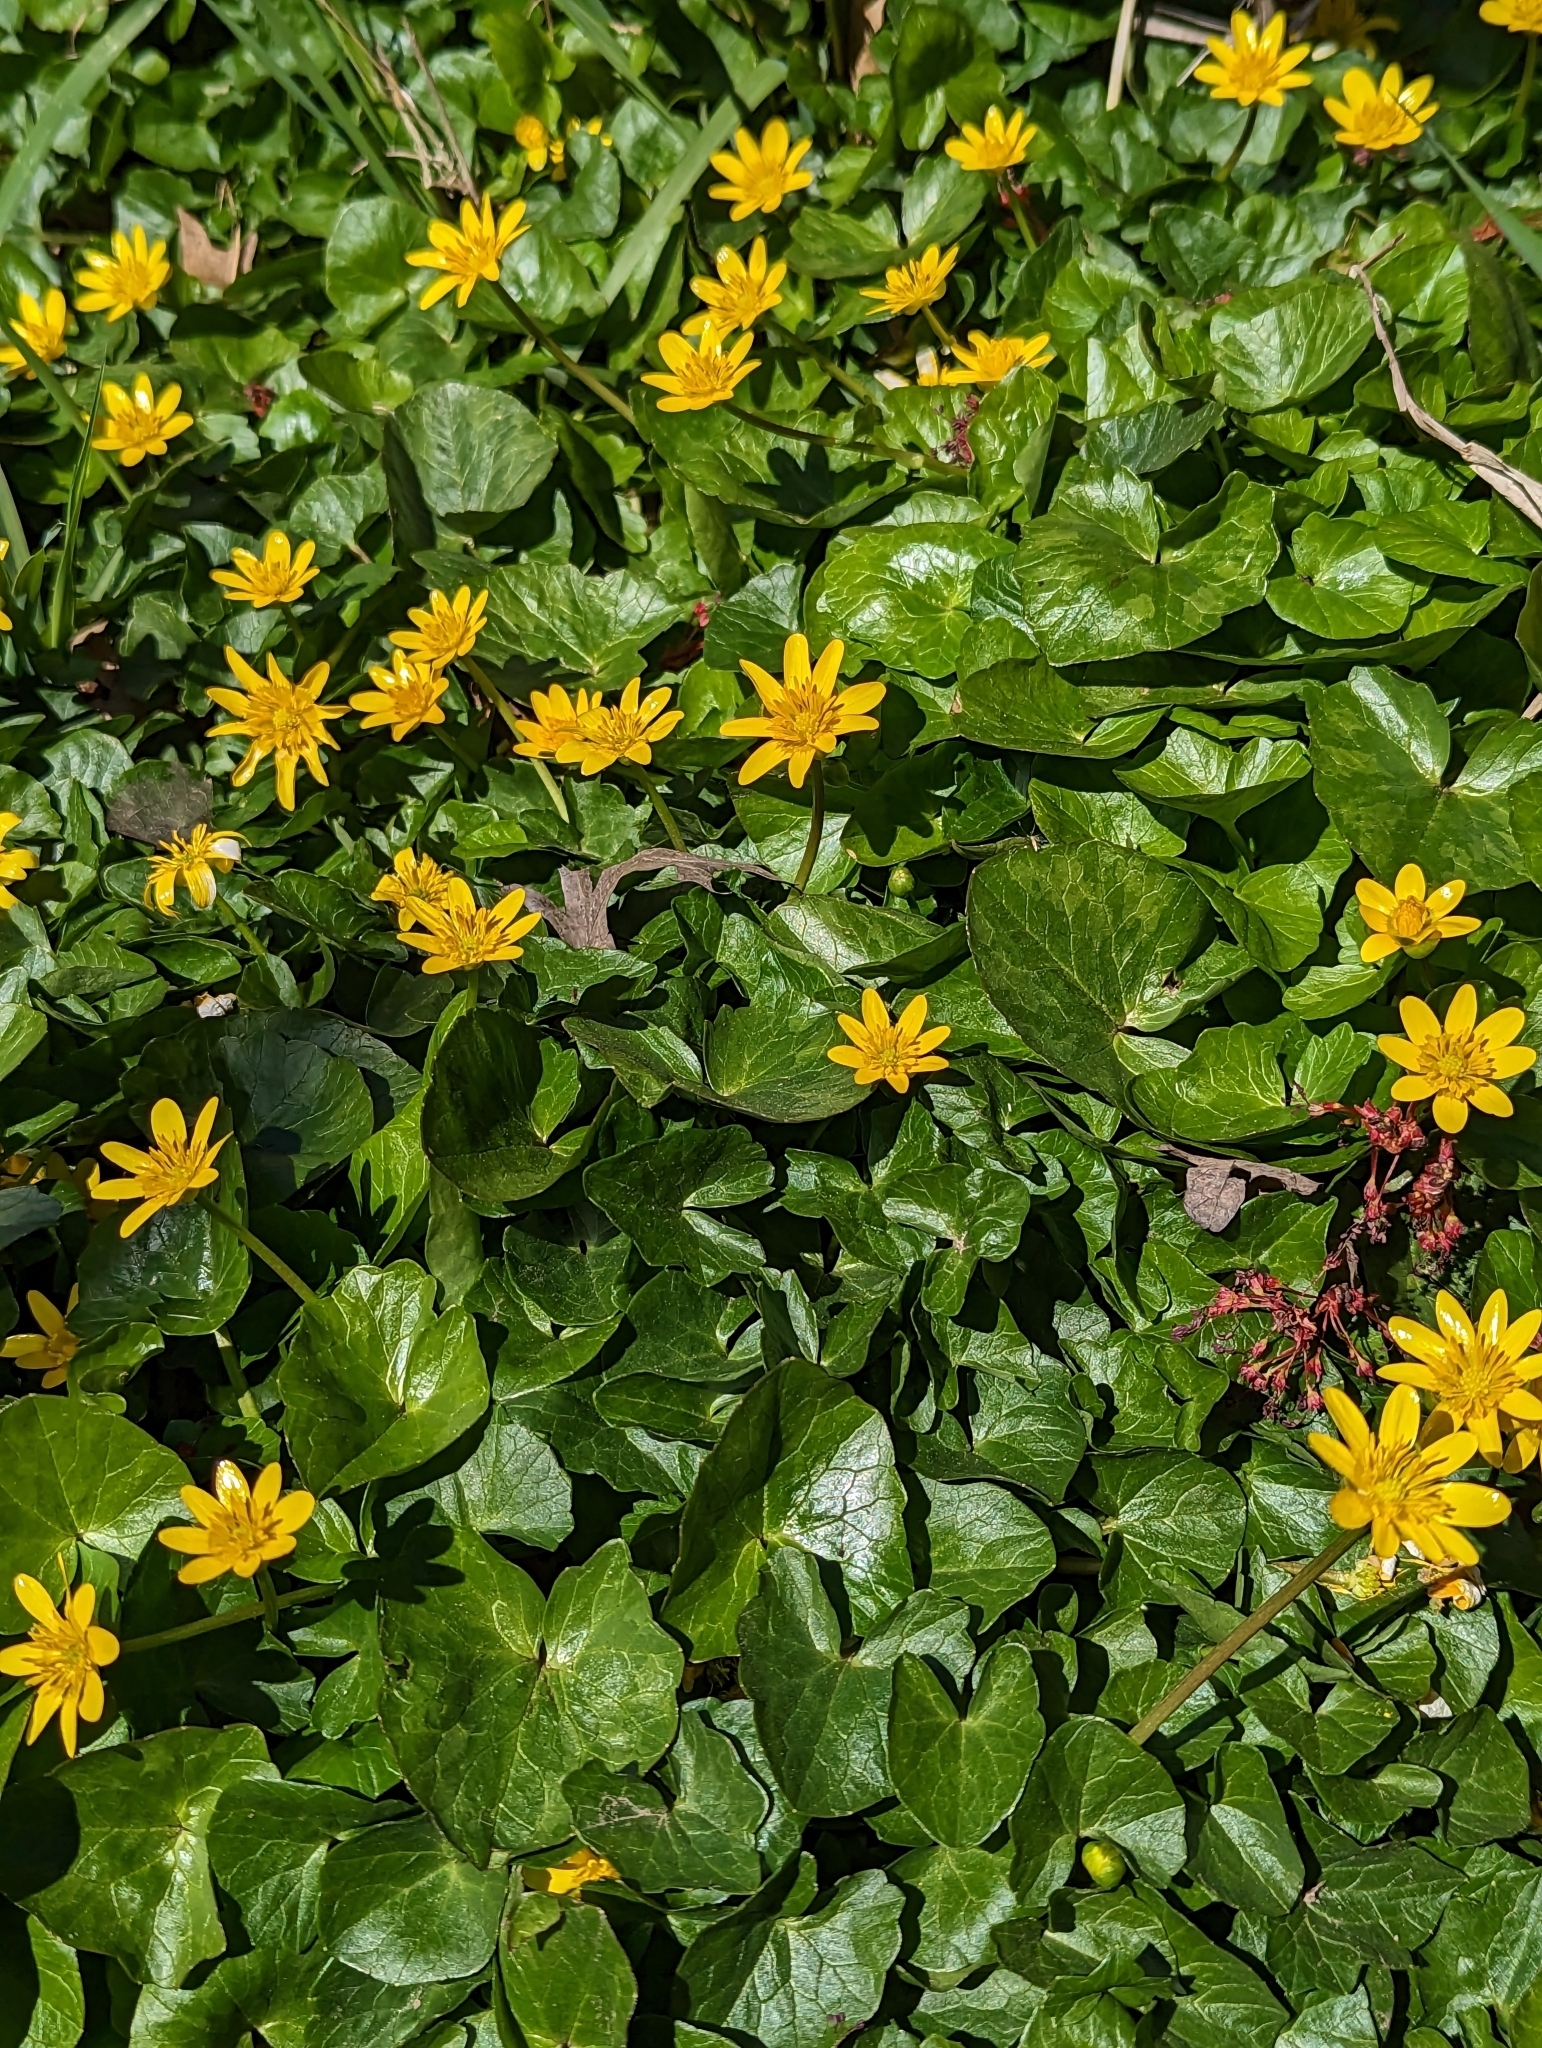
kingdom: Plantae
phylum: Tracheophyta
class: Magnoliopsida
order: Ranunculales
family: Ranunculaceae
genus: Ficaria
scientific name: Ficaria verna
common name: Lesser celandine
